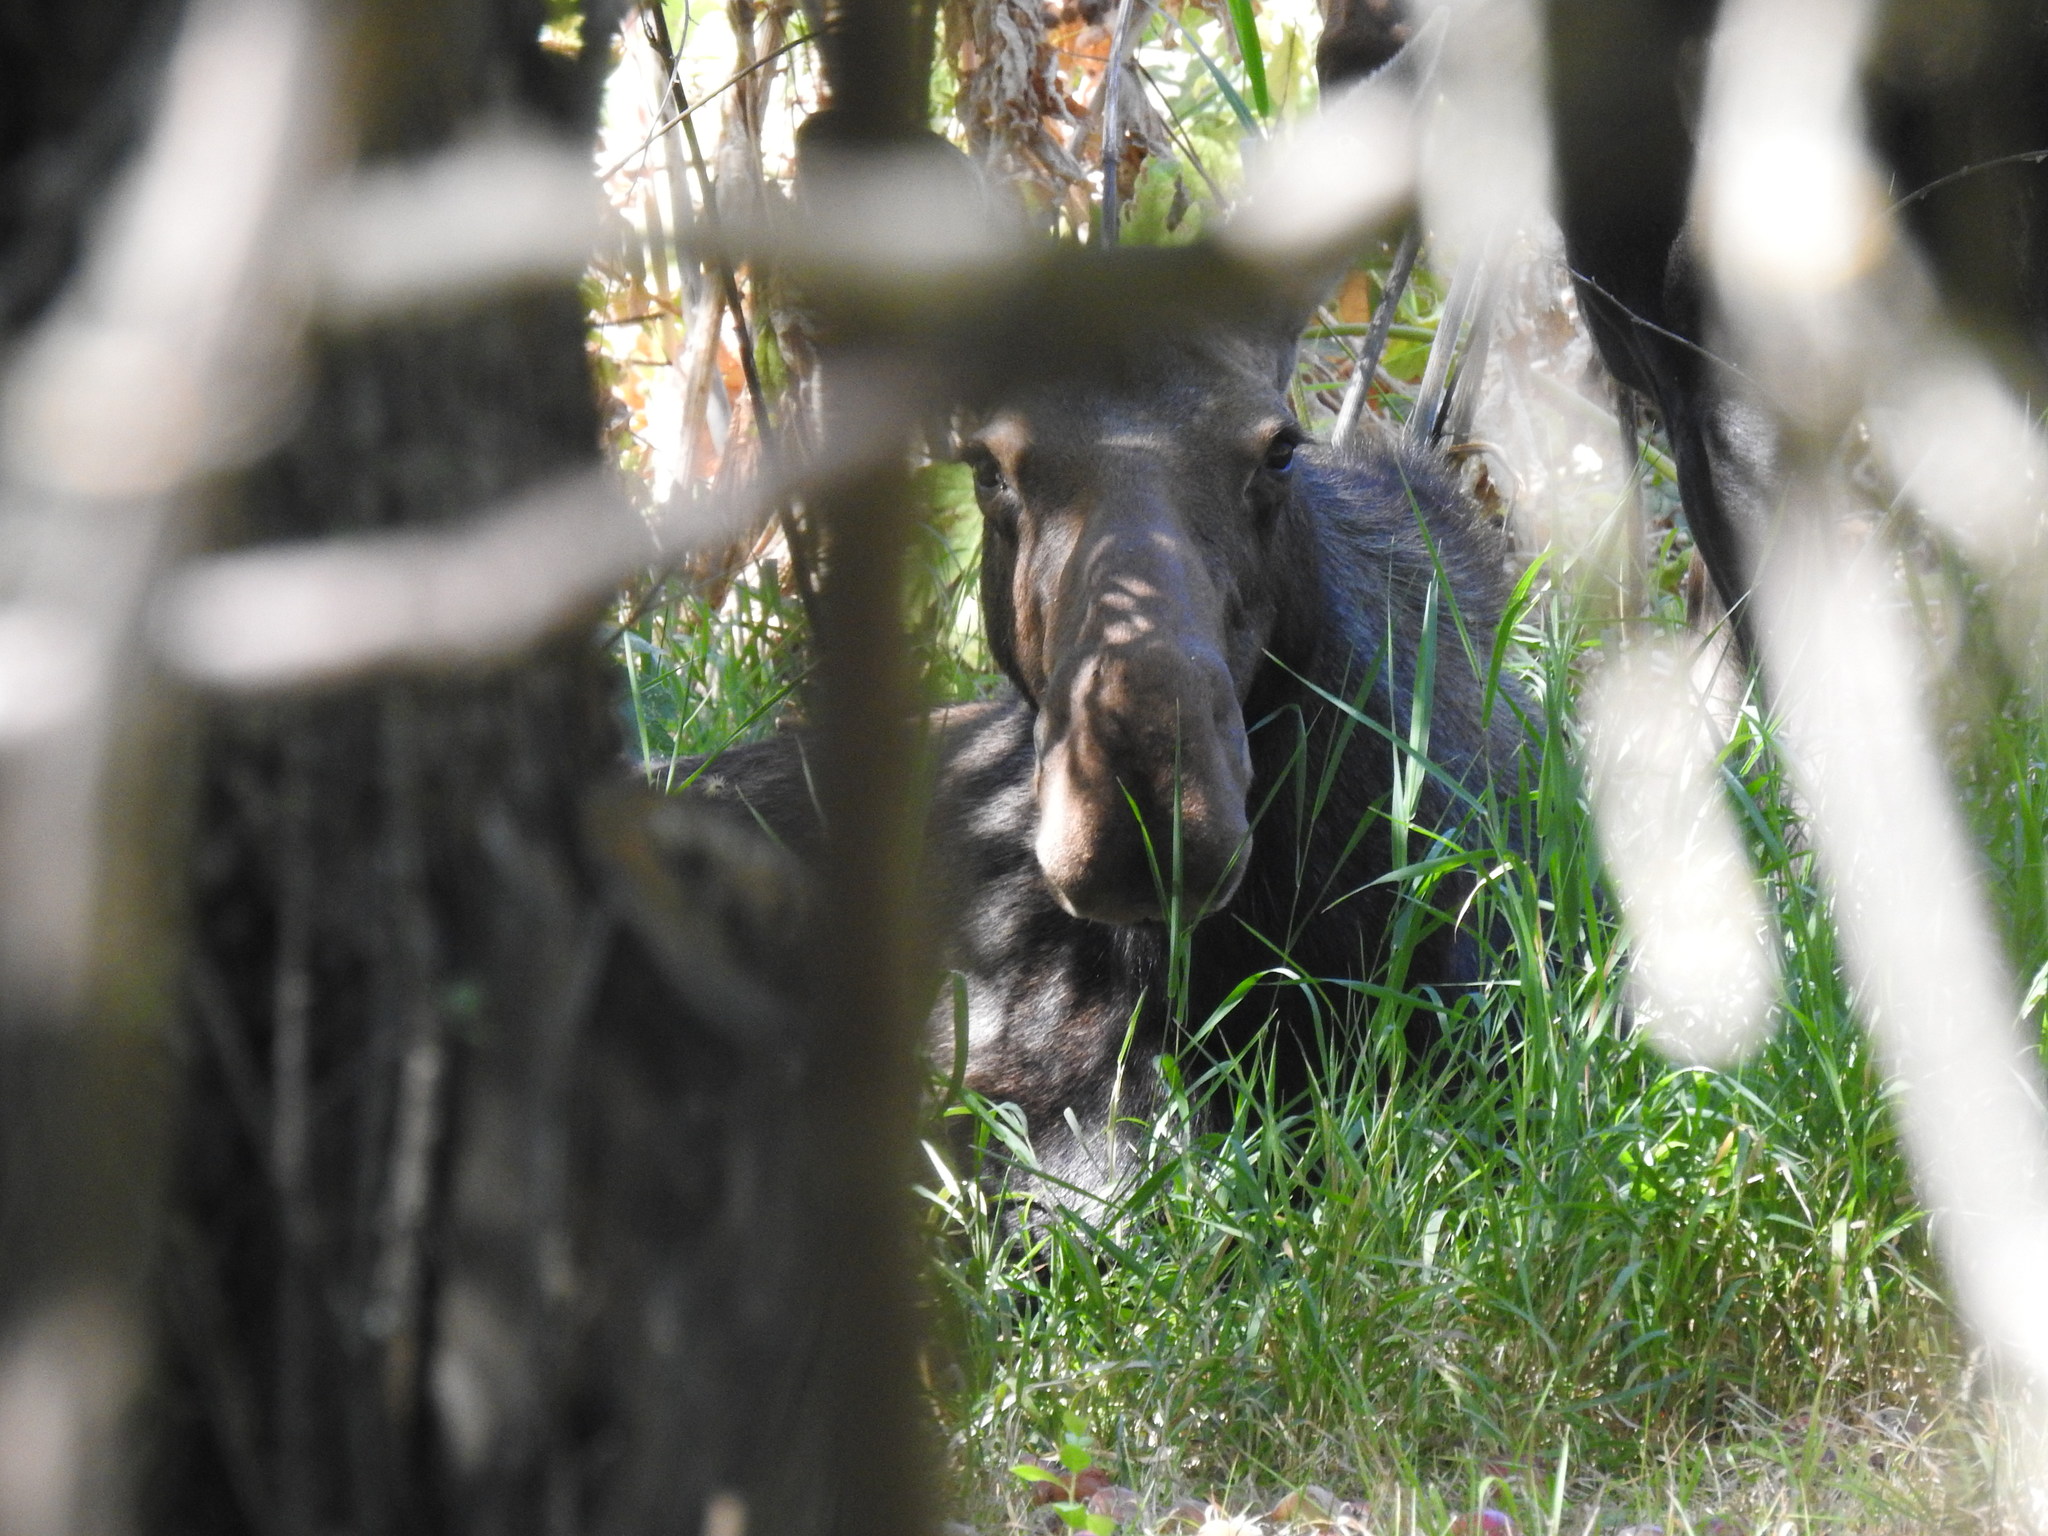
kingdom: Animalia
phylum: Chordata
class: Mammalia
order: Artiodactyla
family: Cervidae
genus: Alces
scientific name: Alces alces
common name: Moose
